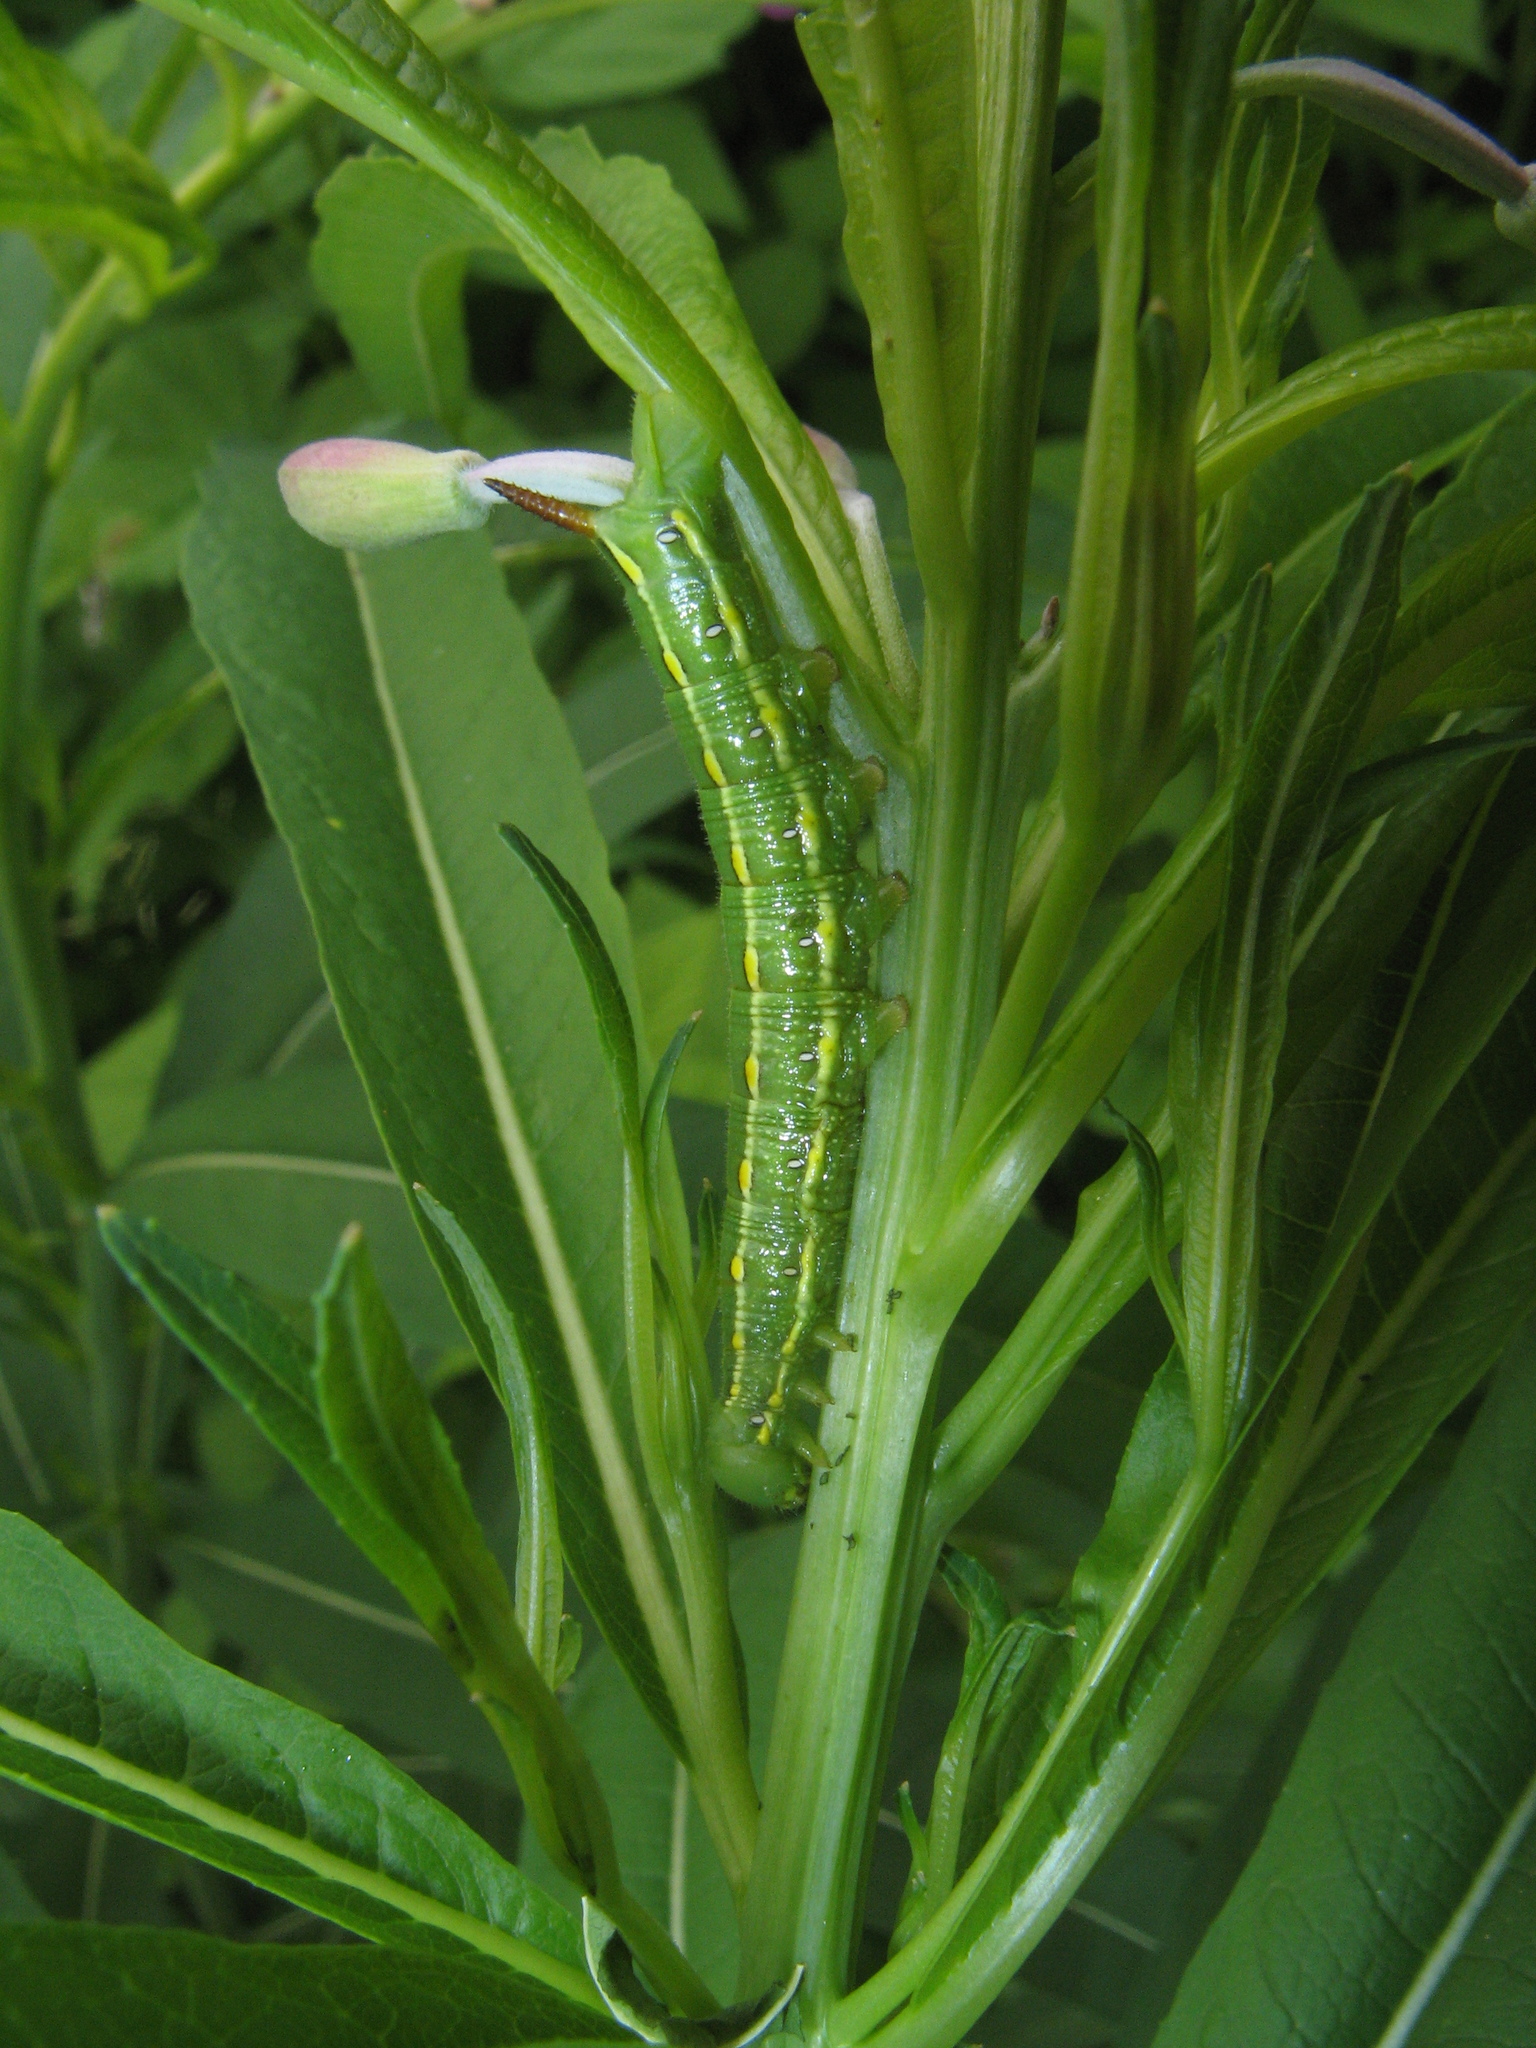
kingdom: Animalia
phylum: Arthropoda
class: Insecta
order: Lepidoptera
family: Sphingidae
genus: Hyles
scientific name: Hyles gallii
